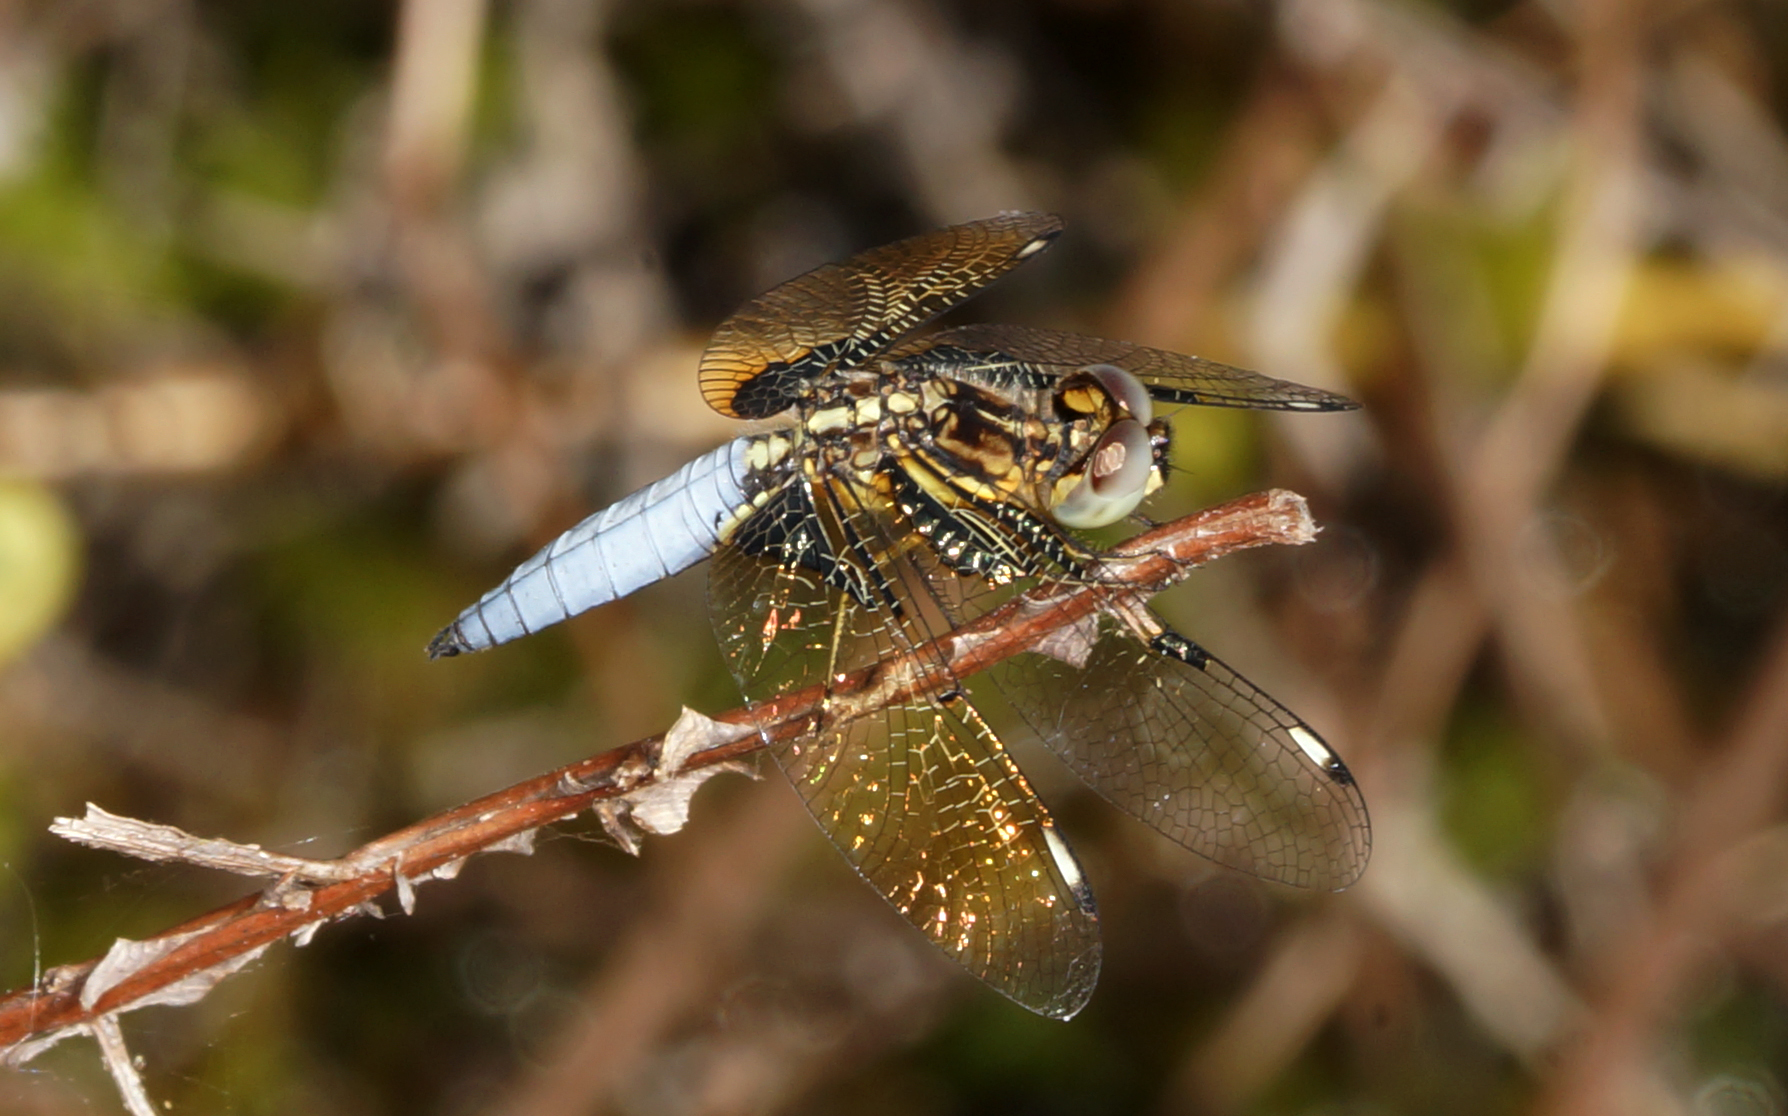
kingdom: Animalia
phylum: Arthropoda
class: Insecta
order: Odonata
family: Libellulidae
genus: Palpopleura
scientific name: Palpopleura sexmaculata
